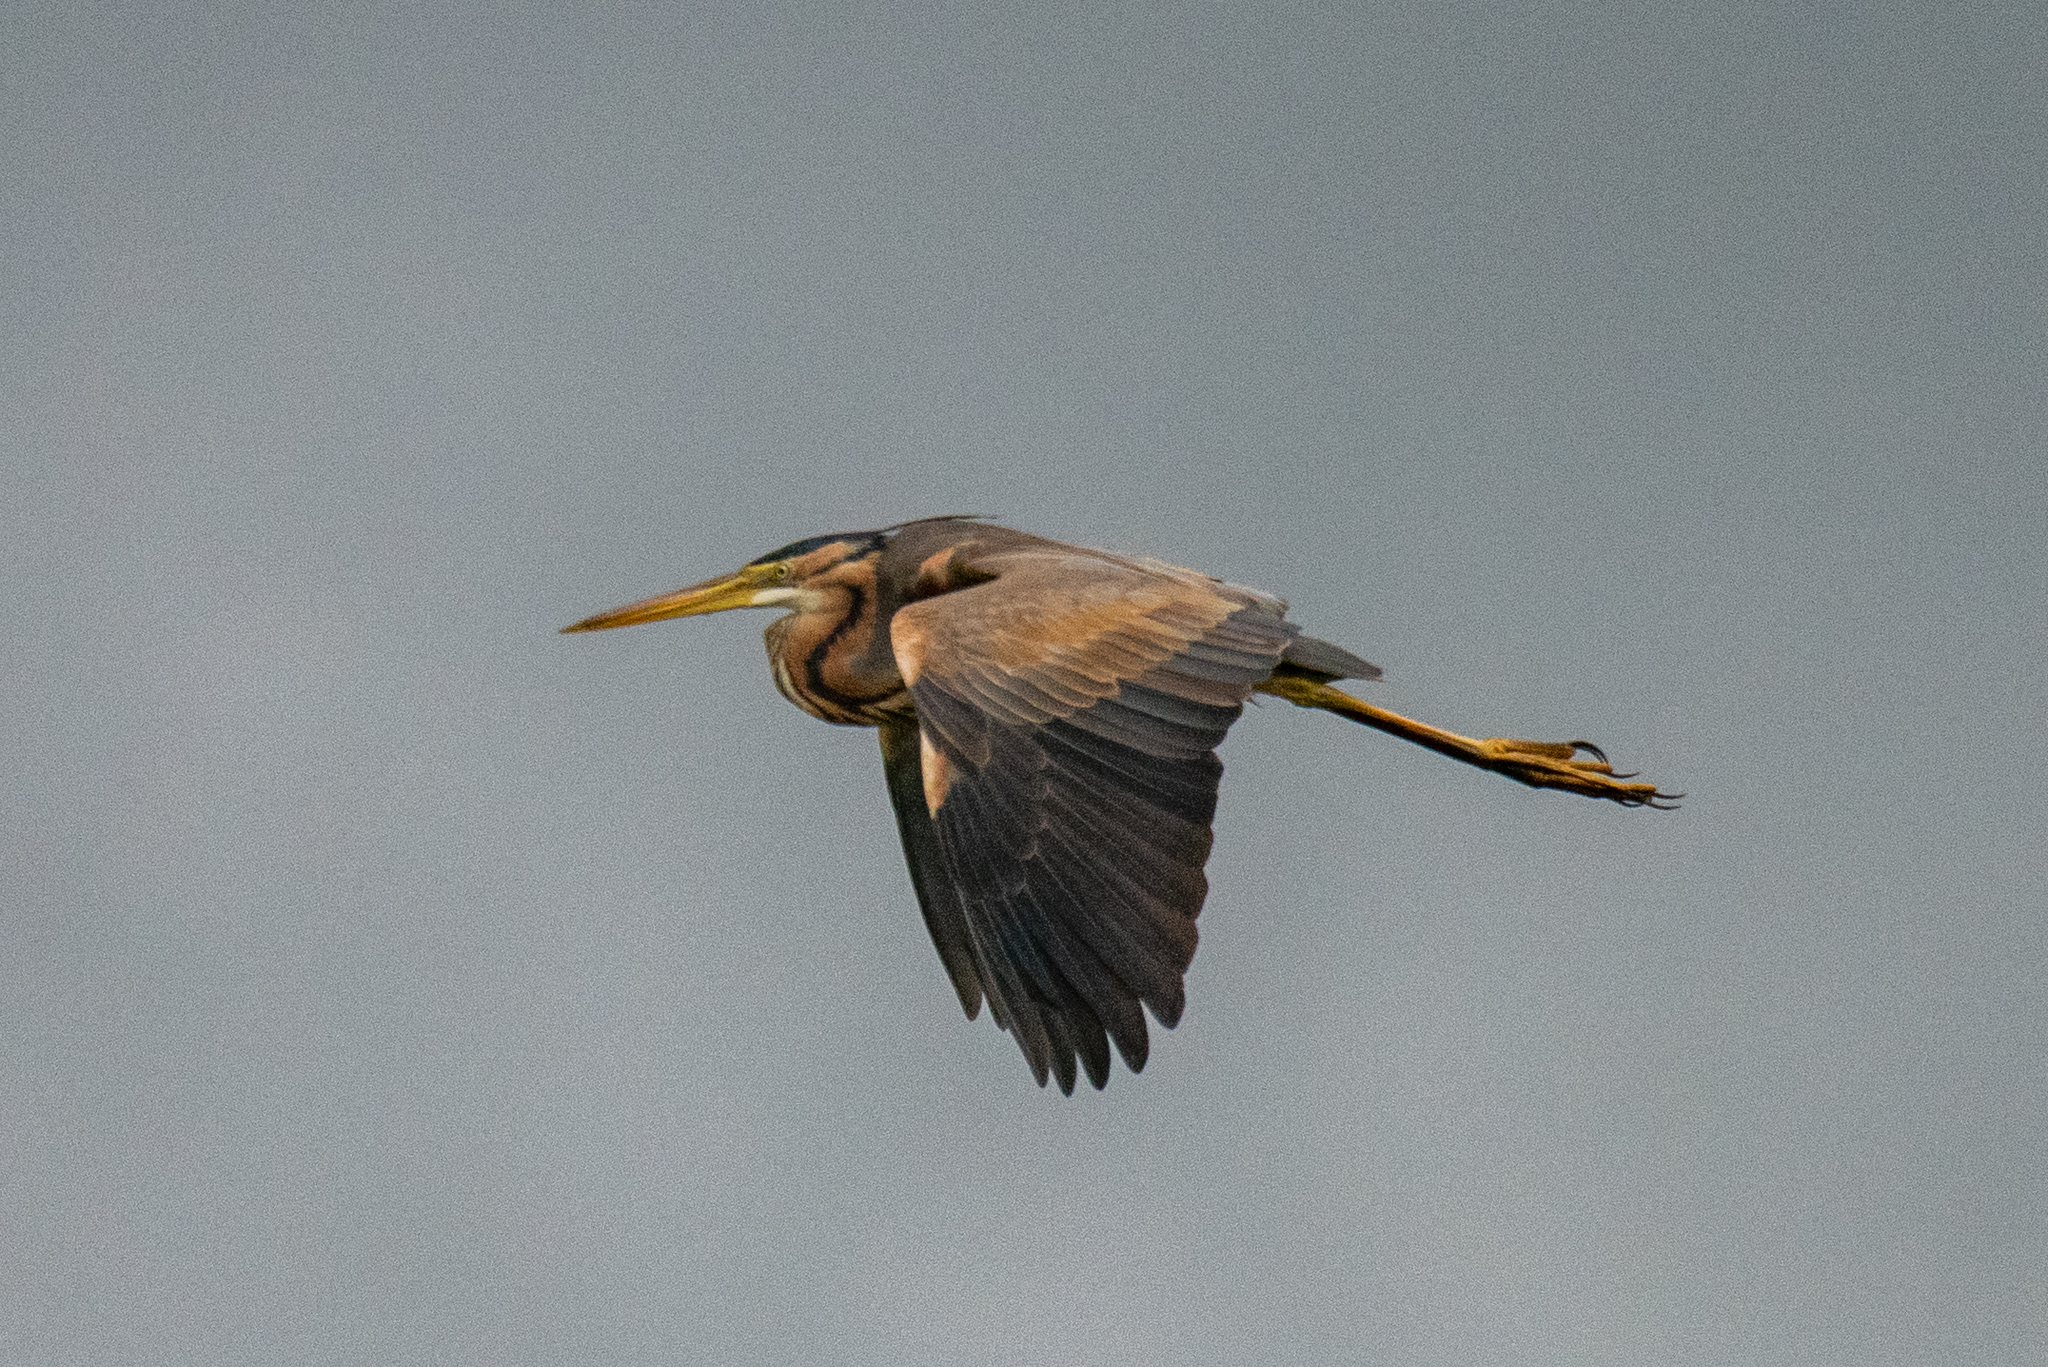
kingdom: Animalia
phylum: Chordata
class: Aves
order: Pelecaniformes
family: Ardeidae
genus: Ardea
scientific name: Ardea purpurea
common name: Purple heron
